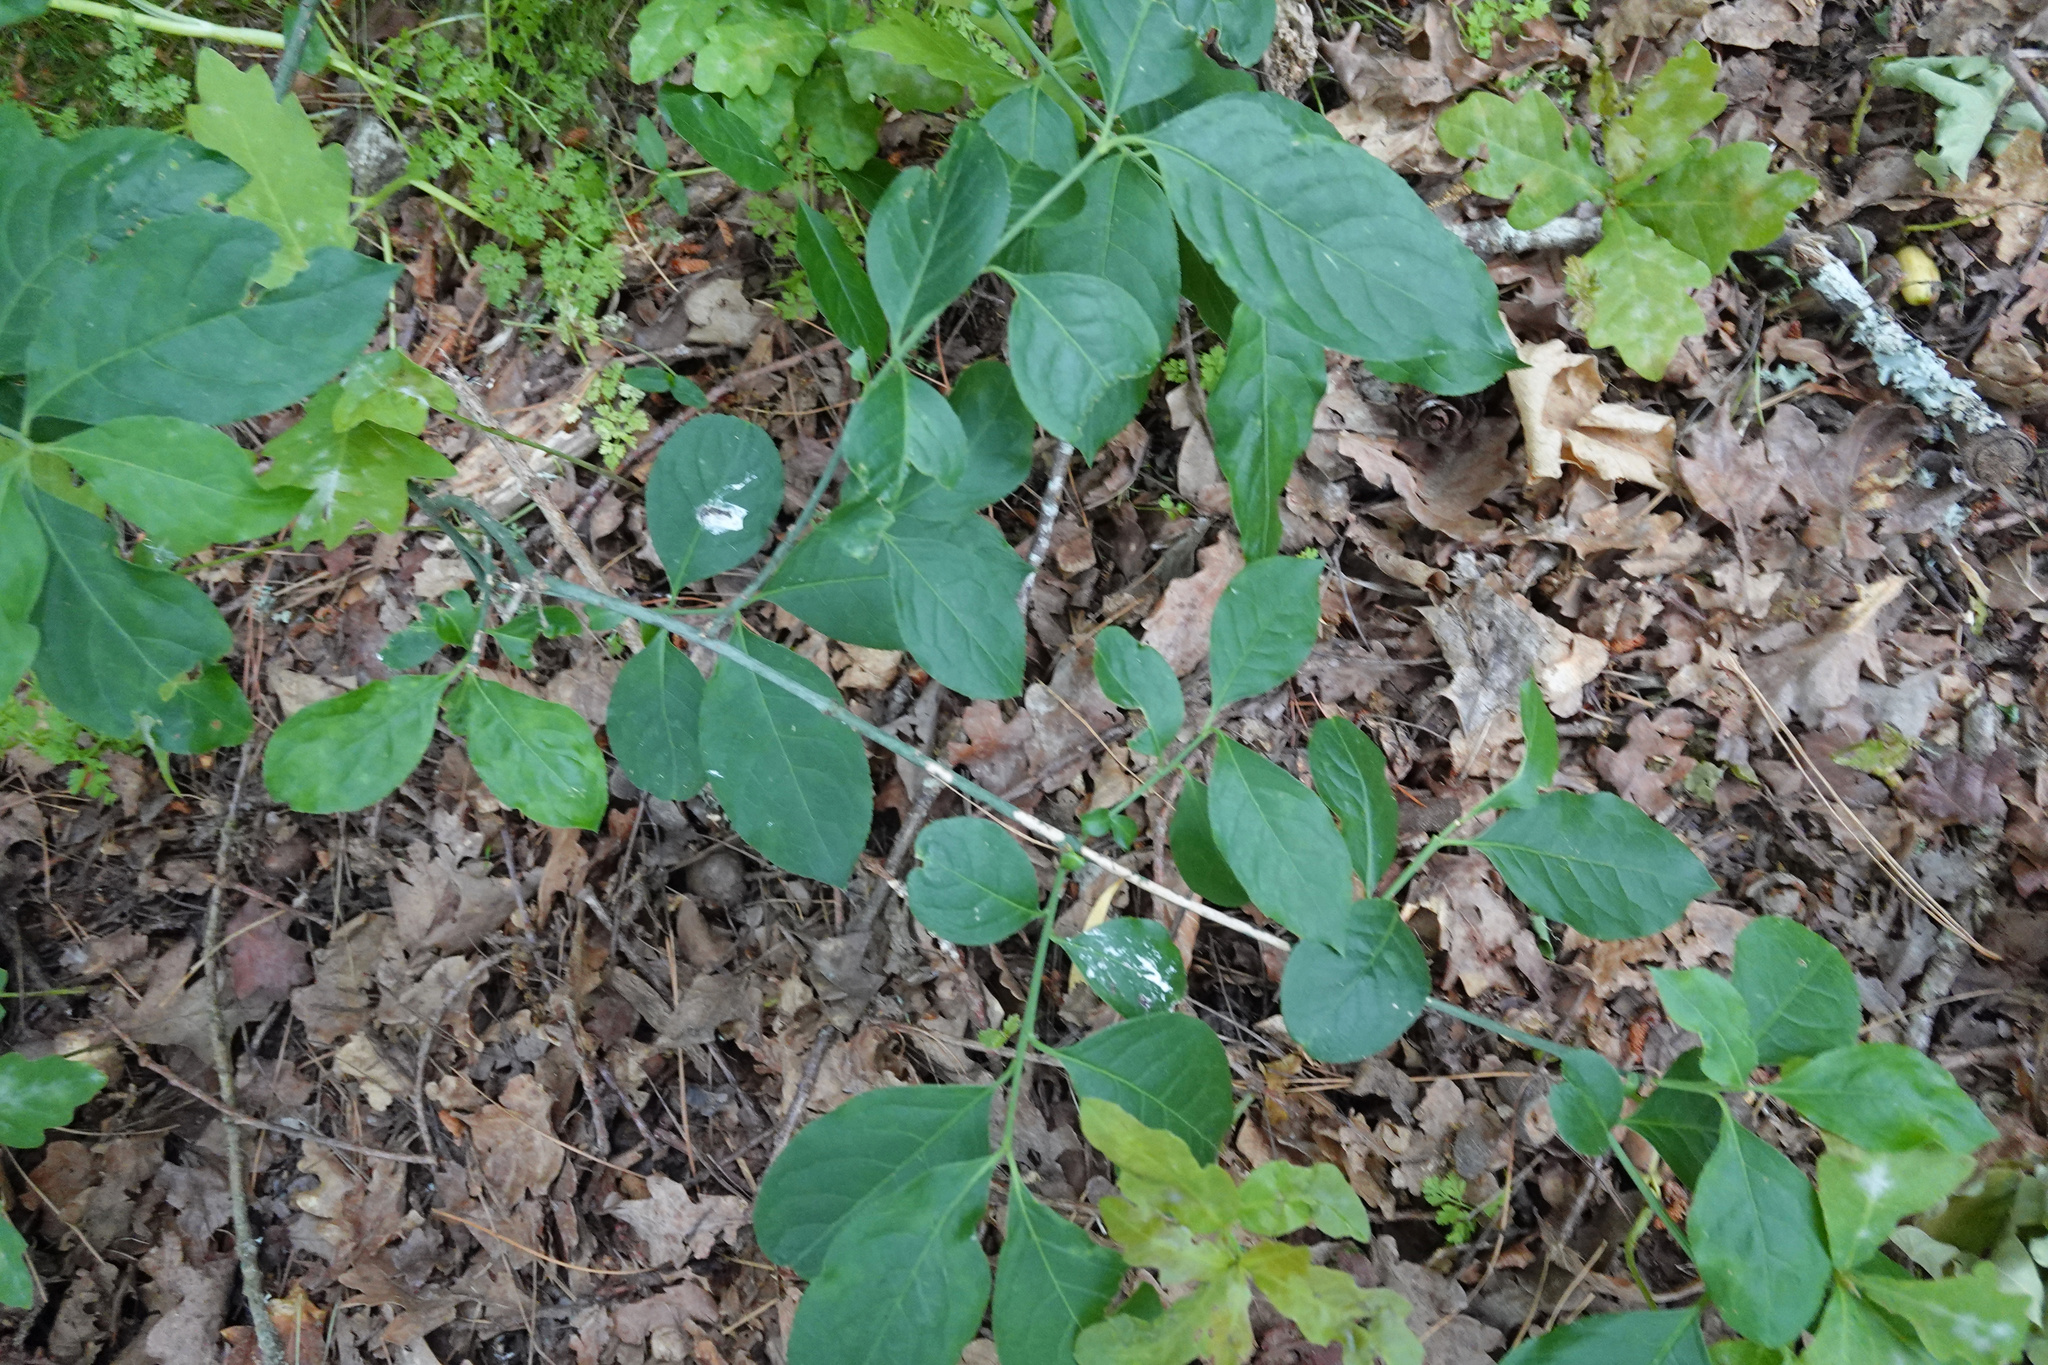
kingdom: Plantae
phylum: Tracheophyta
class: Magnoliopsida
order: Celastrales
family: Celastraceae
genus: Euonymus
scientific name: Euonymus europaeus
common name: Spindle
